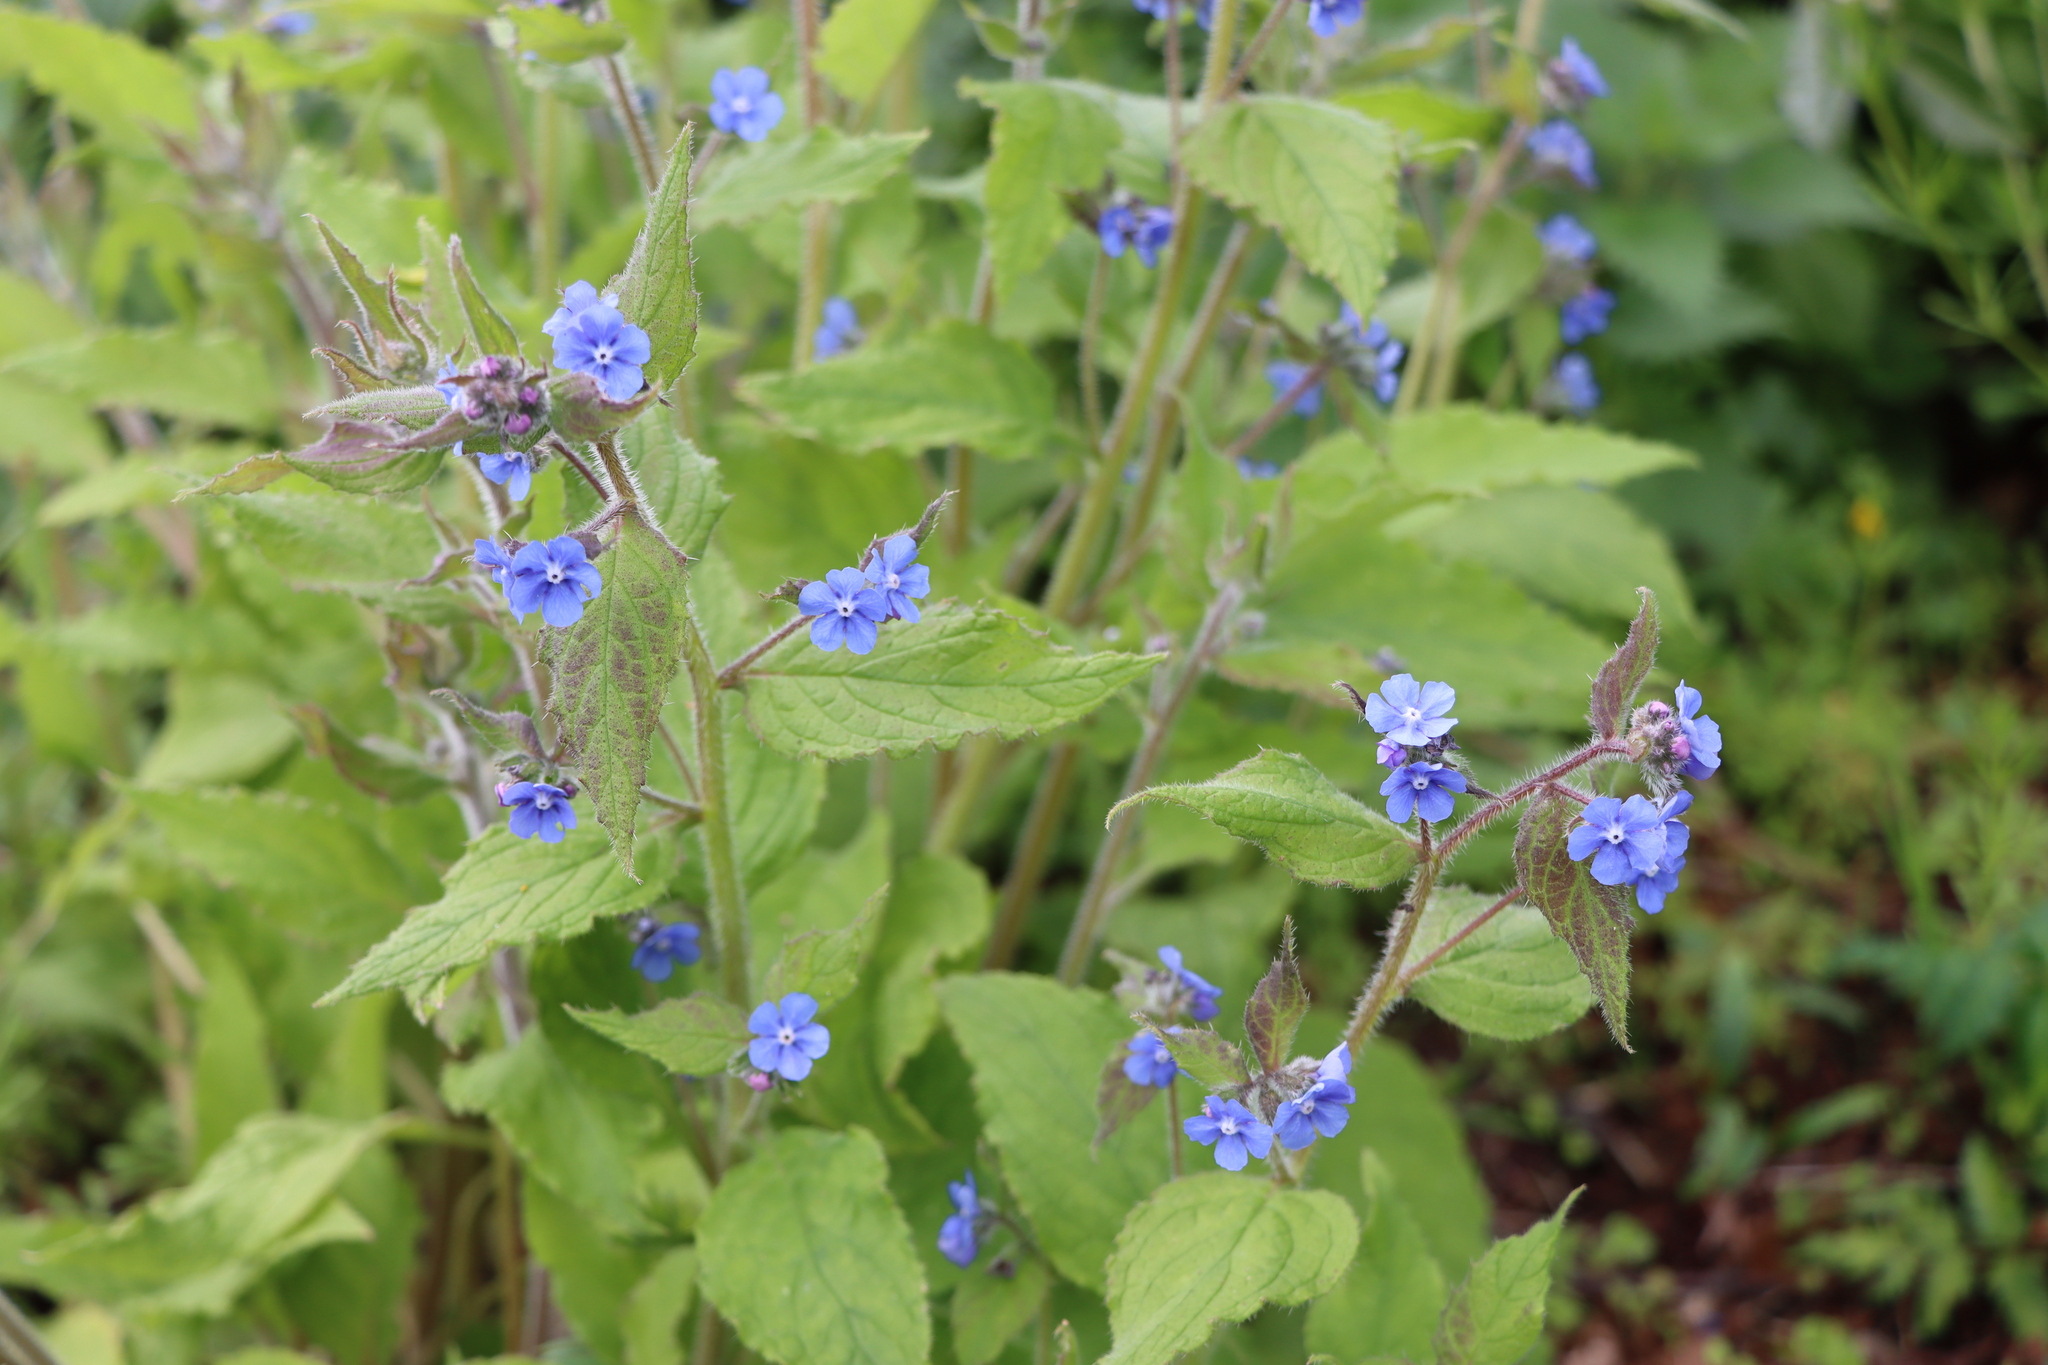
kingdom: Plantae
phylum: Tracheophyta
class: Magnoliopsida
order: Boraginales
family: Boraginaceae
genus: Pentaglottis
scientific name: Pentaglottis sempervirens
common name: Green alkanet
